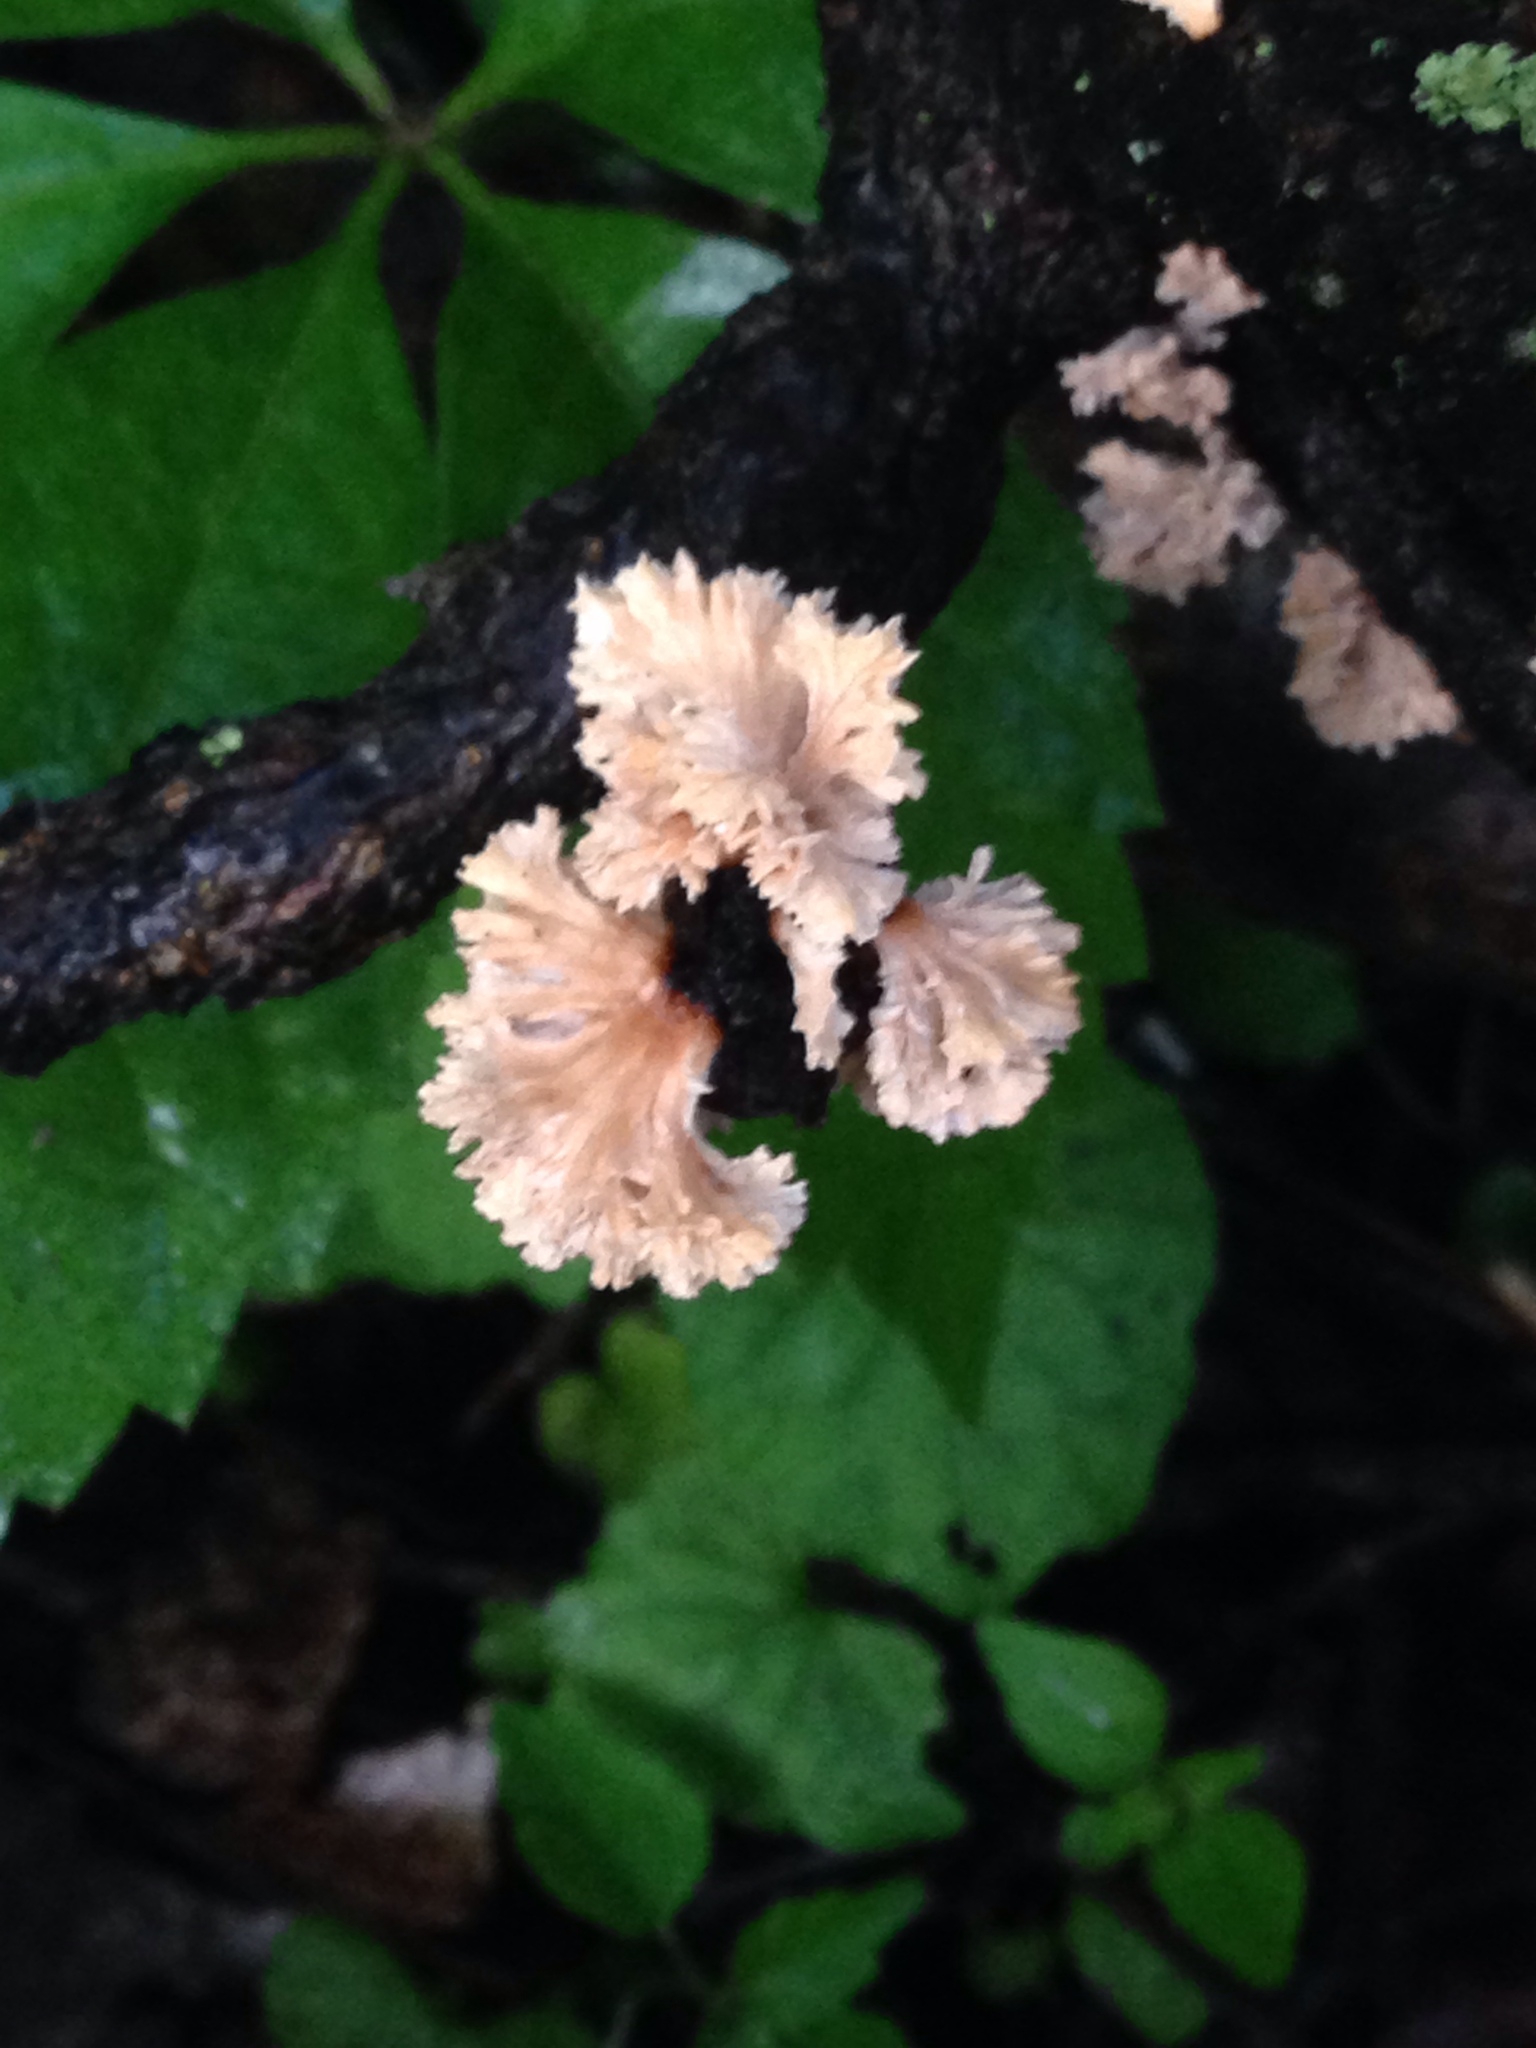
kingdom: Fungi
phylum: Basidiomycota
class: Agaricomycetes
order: Agaricales
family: Schizophyllaceae
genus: Schizophyllum
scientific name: Schizophyllum commune
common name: Common porecrust
